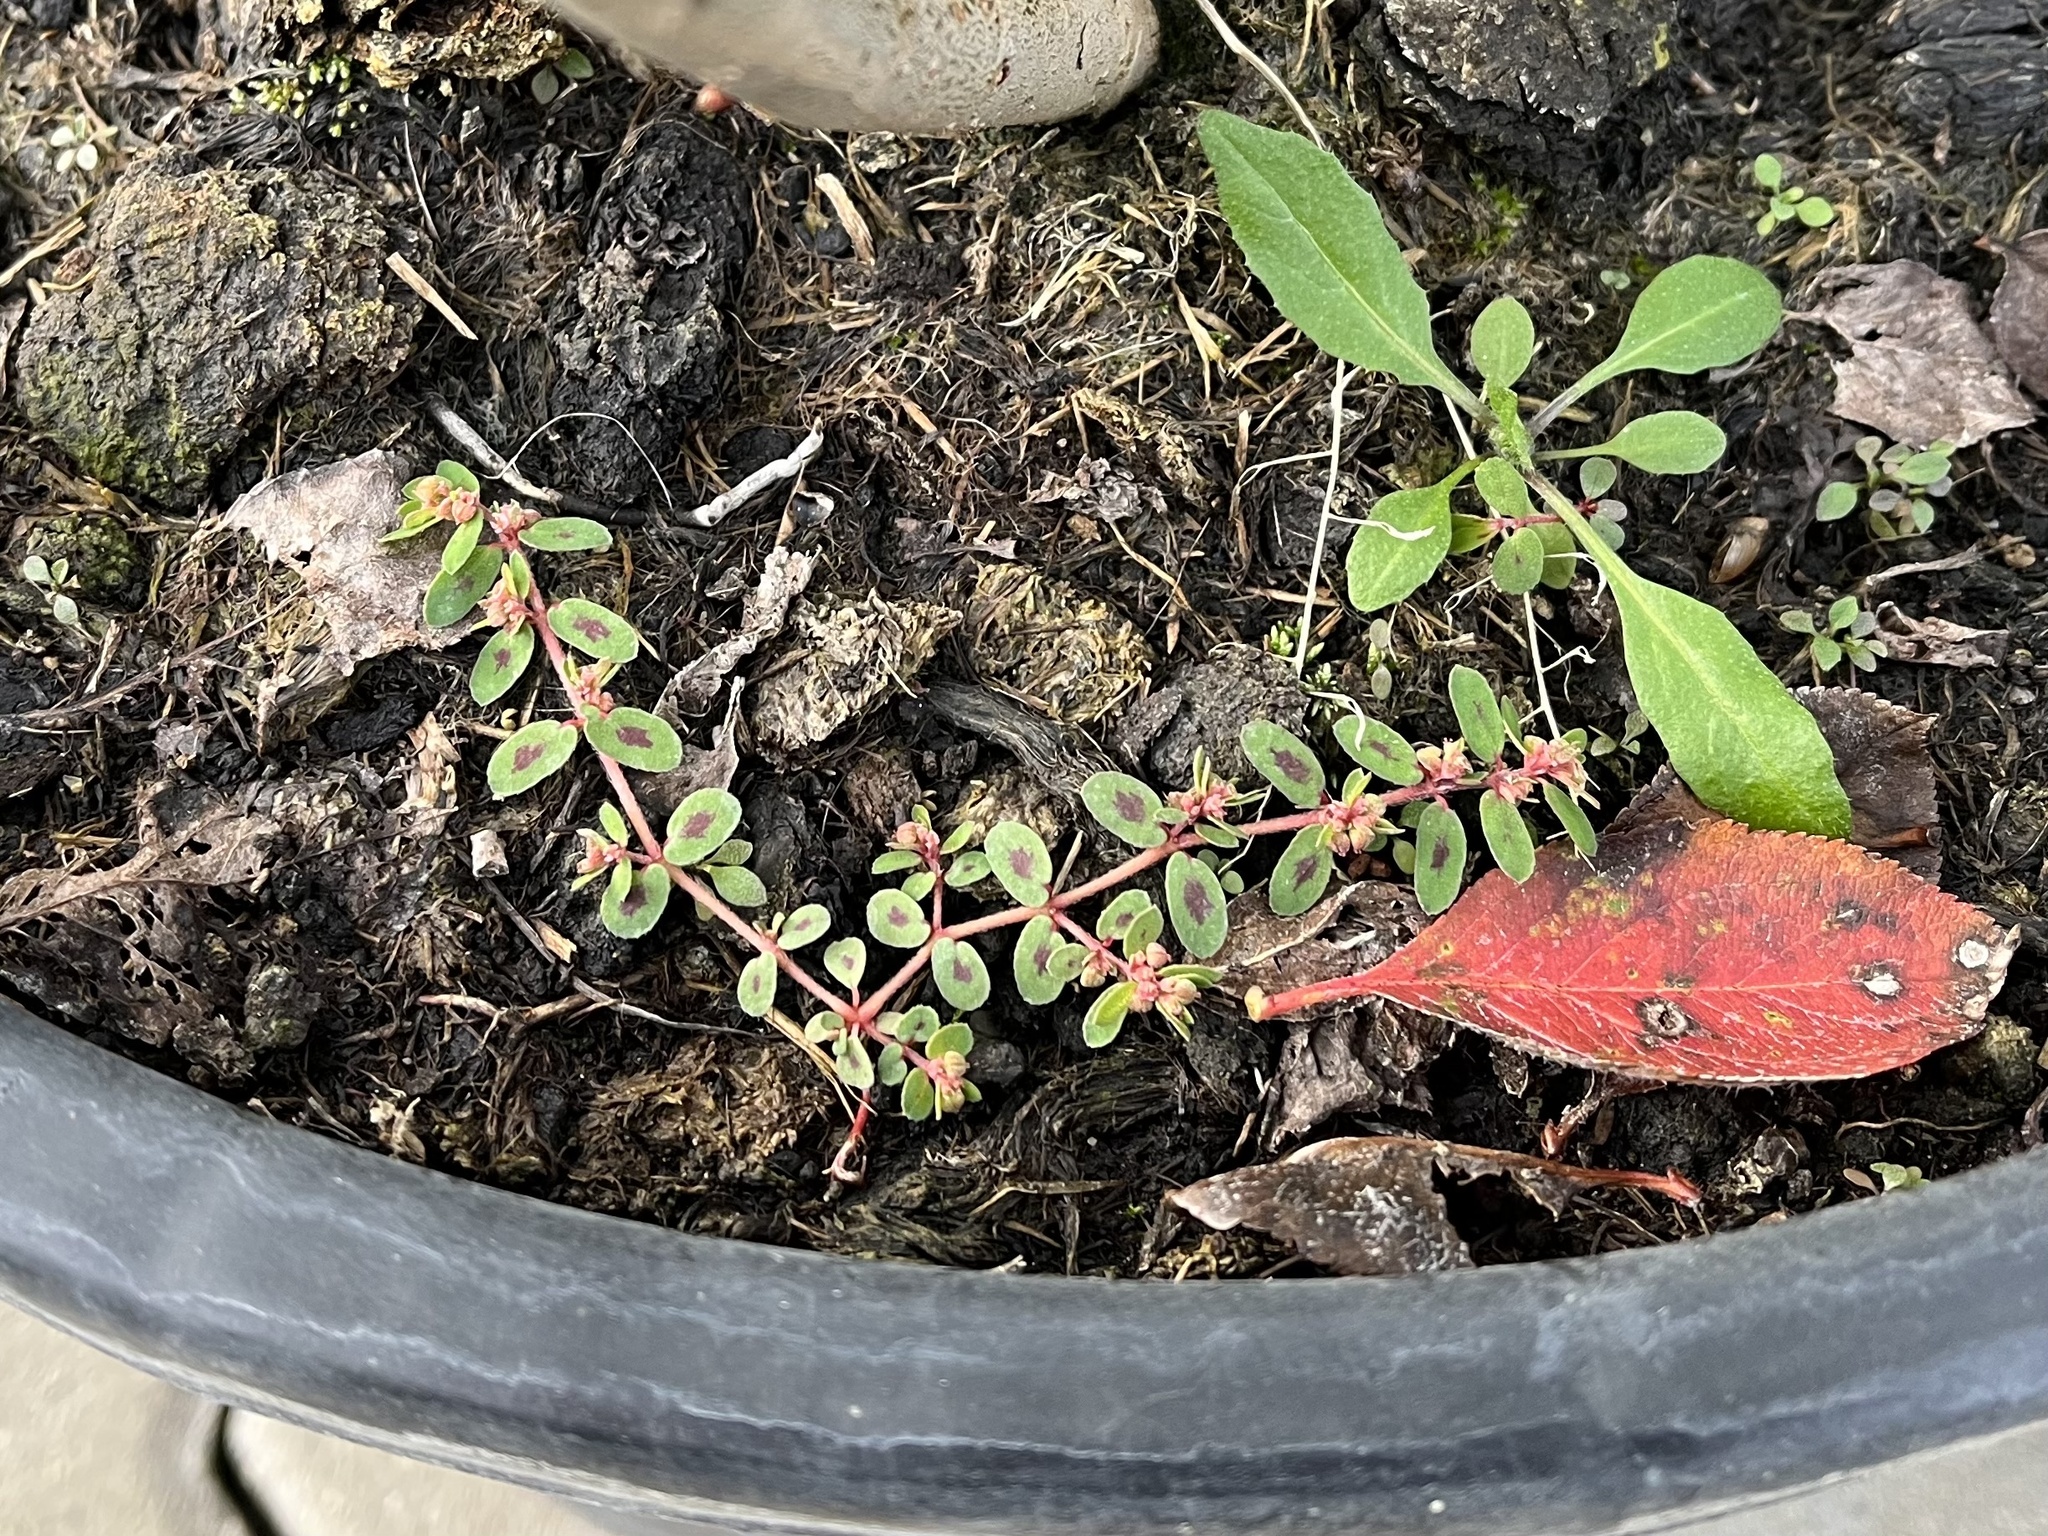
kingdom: Plantae
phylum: Tracheophyta
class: Magnoliopsida
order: Malpighiales
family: Euphorbiaceae
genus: Euphorbia
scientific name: Euphorbia maculata
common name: Spotted spurge
